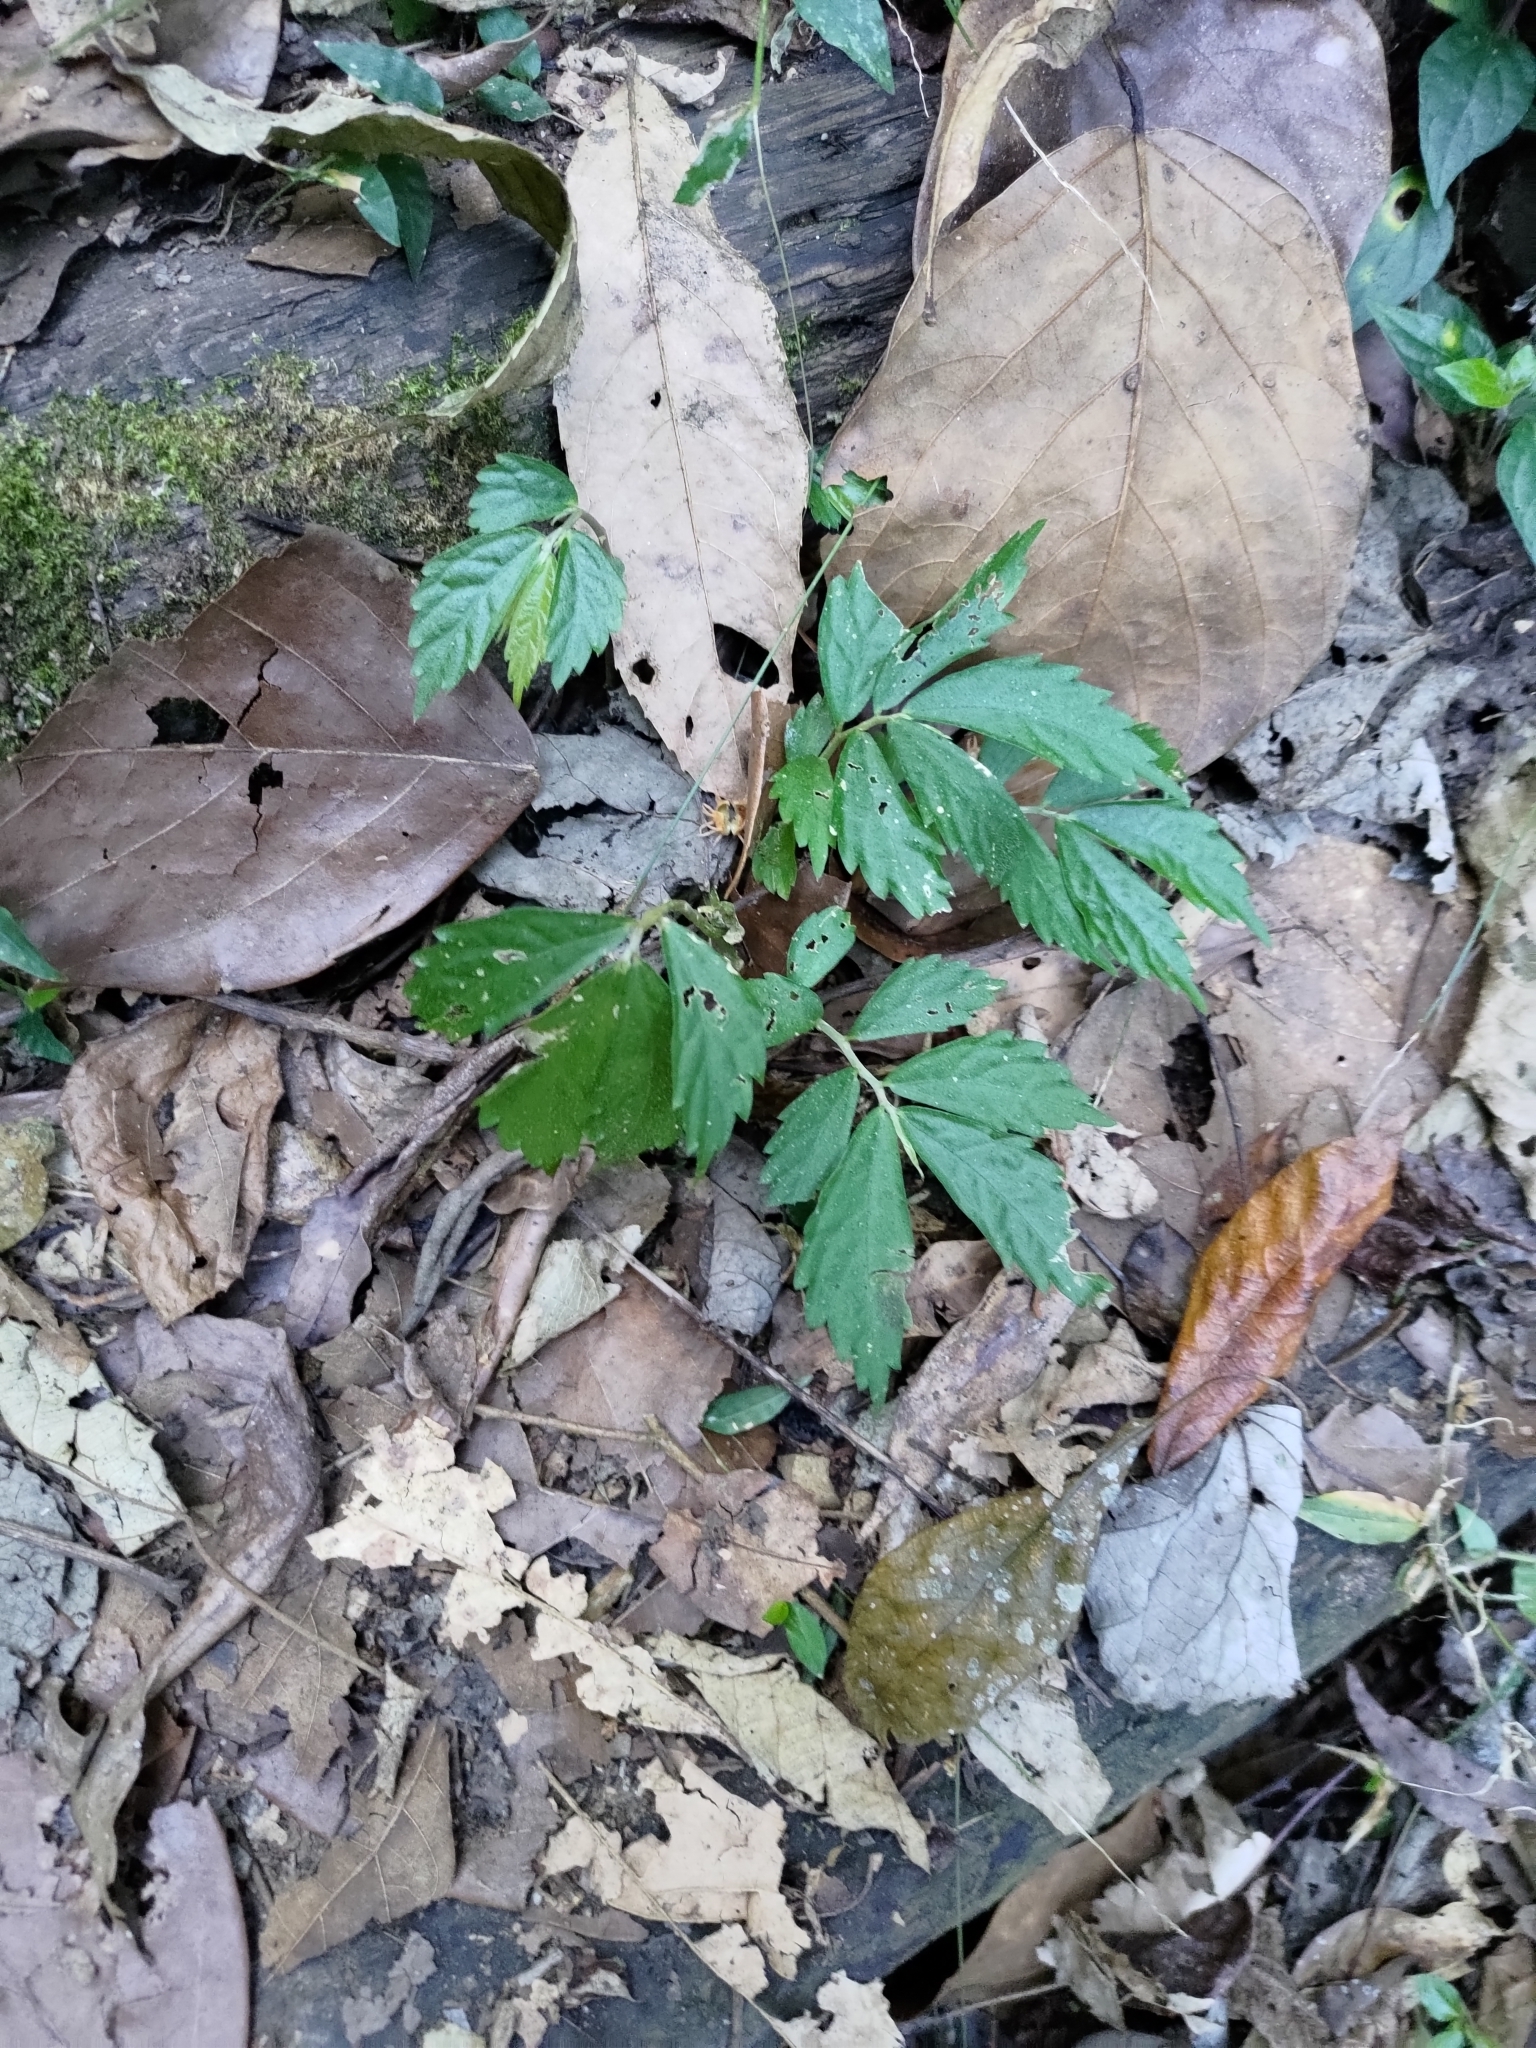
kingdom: Plantae
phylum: Tracheophyta
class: Magnoliopsida
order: Rosales
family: Urticaceae
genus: Elatostema
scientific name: Elatostema lineolatum
